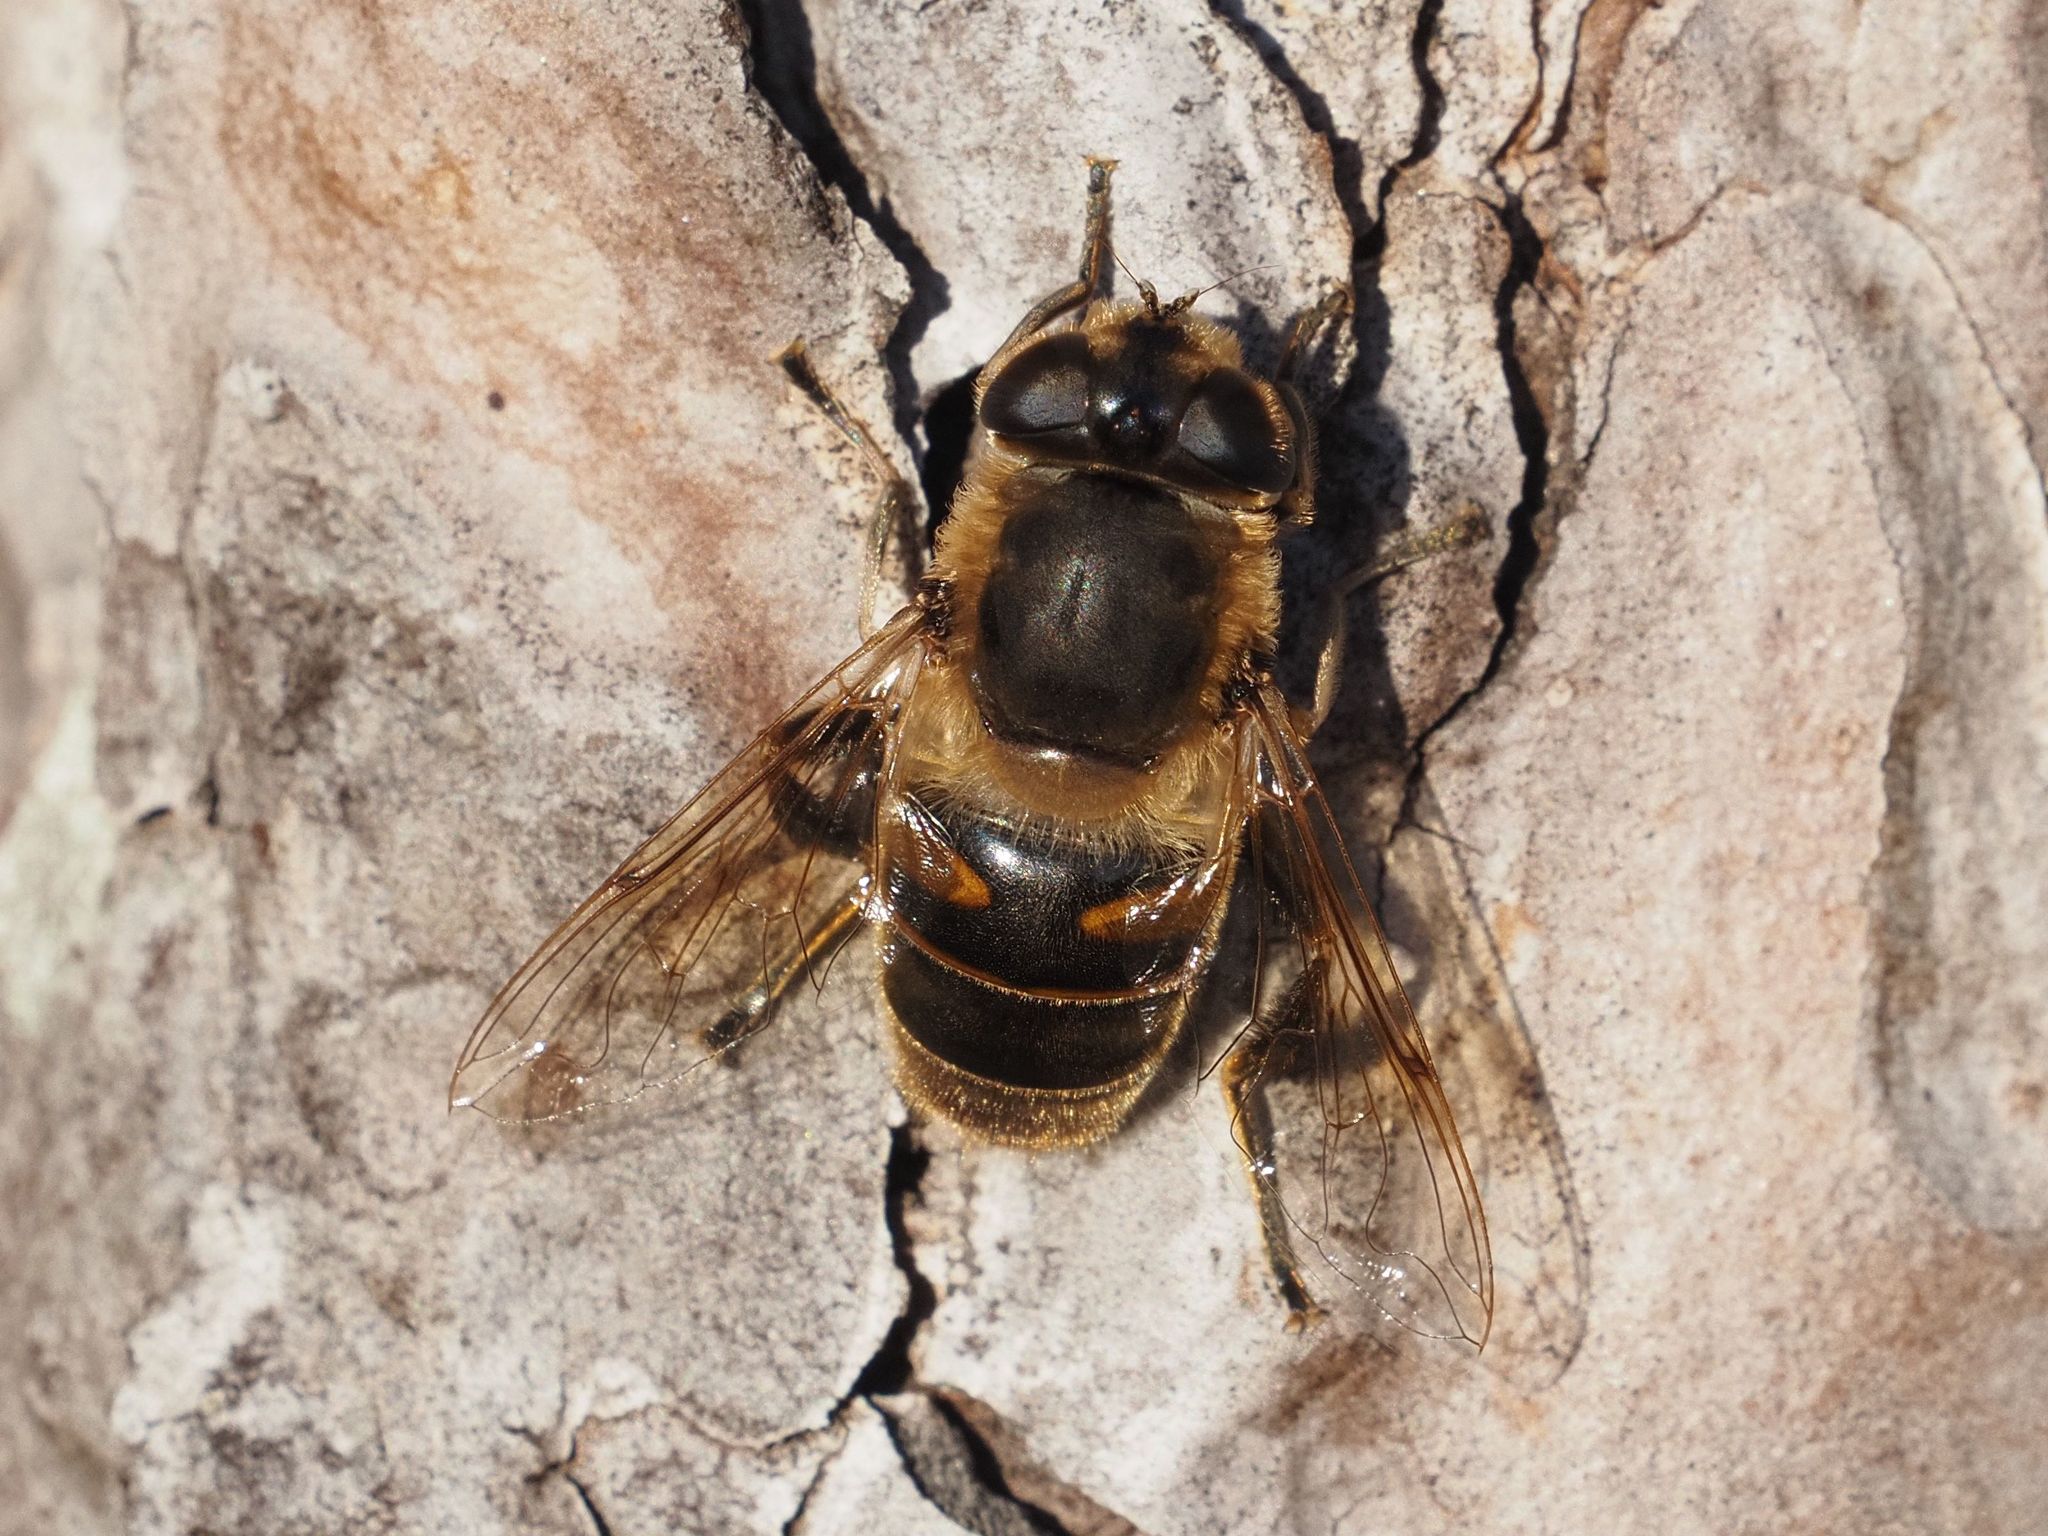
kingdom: Animalia
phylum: Arthropoda
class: Insecta
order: Diptera
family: Syrphidae
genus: Eristalis
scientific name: Eristalis tenax
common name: Drone fly
